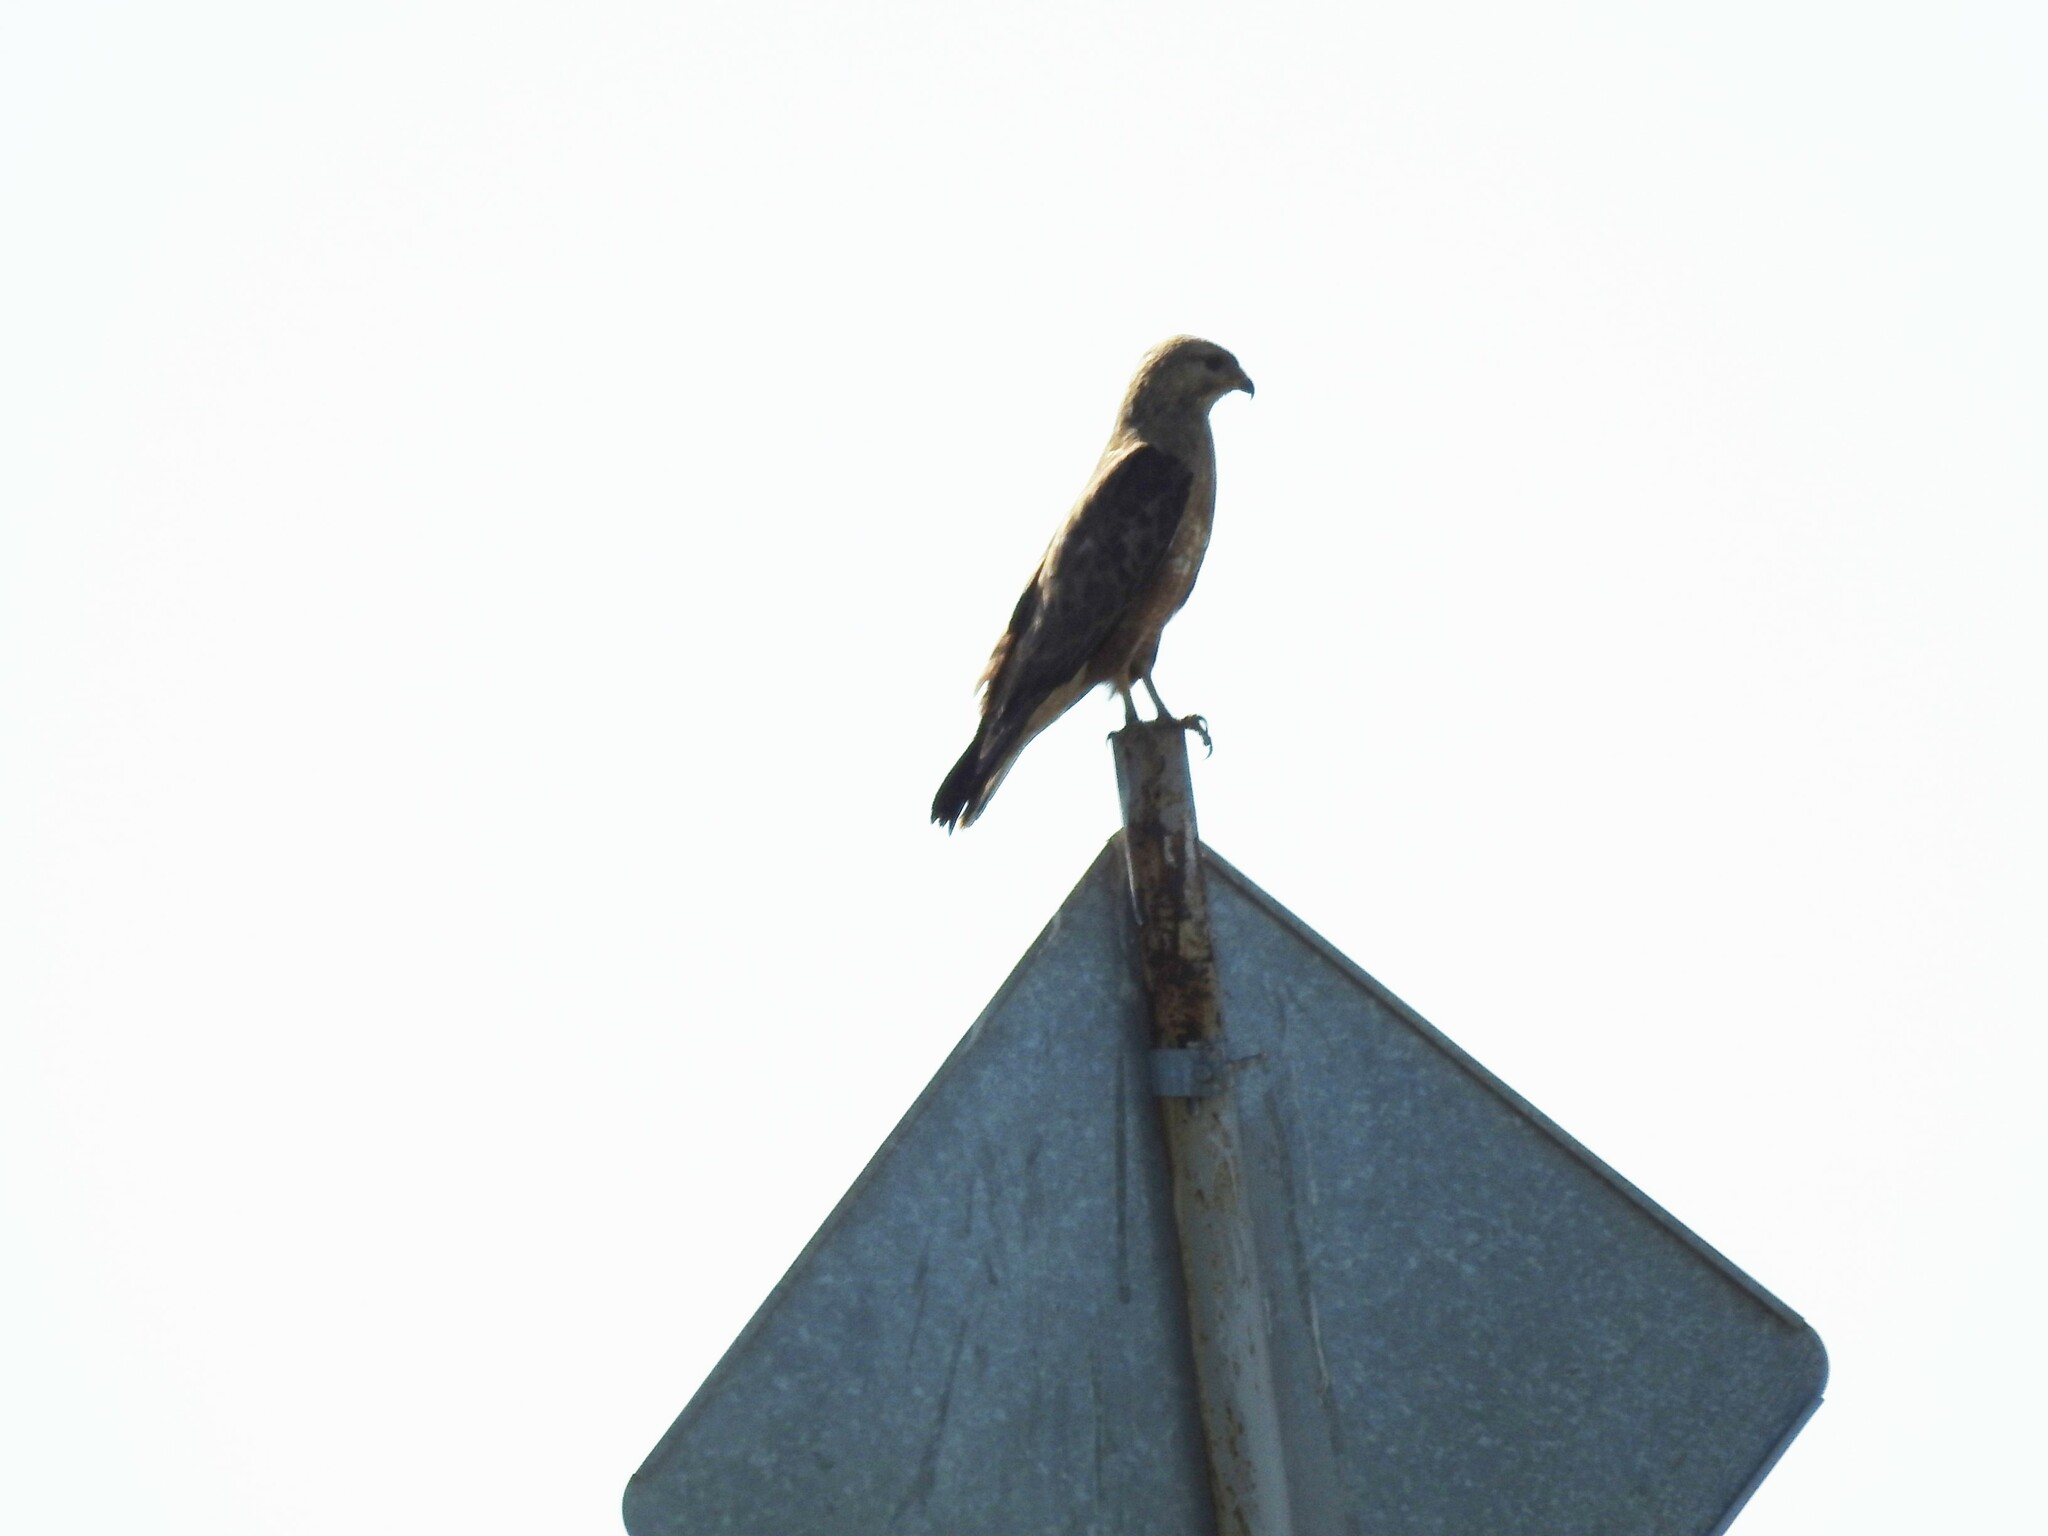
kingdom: Animalia
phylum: Chordata
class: Aves
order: Accipitriformes
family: Accipitridae
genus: Buteo
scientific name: Buteo buteo
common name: Common buzzard
